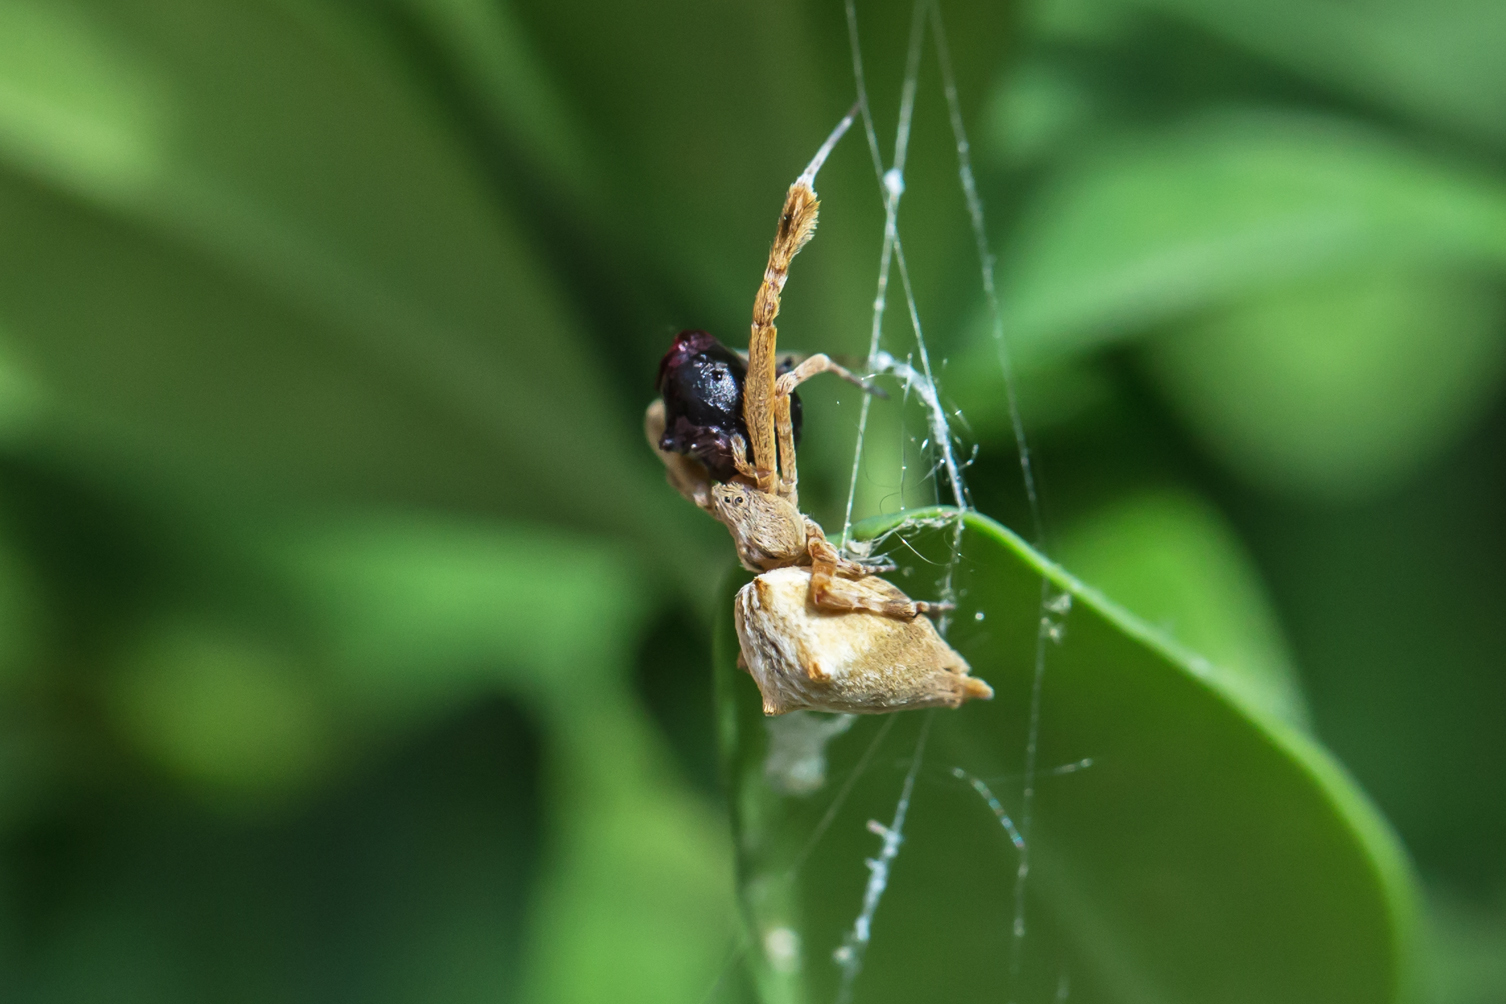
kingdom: Animalia
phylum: Arthropoda
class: Arachnida
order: Araneae
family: Uloboridae
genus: Uloborus
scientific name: Uloborus glomosus
